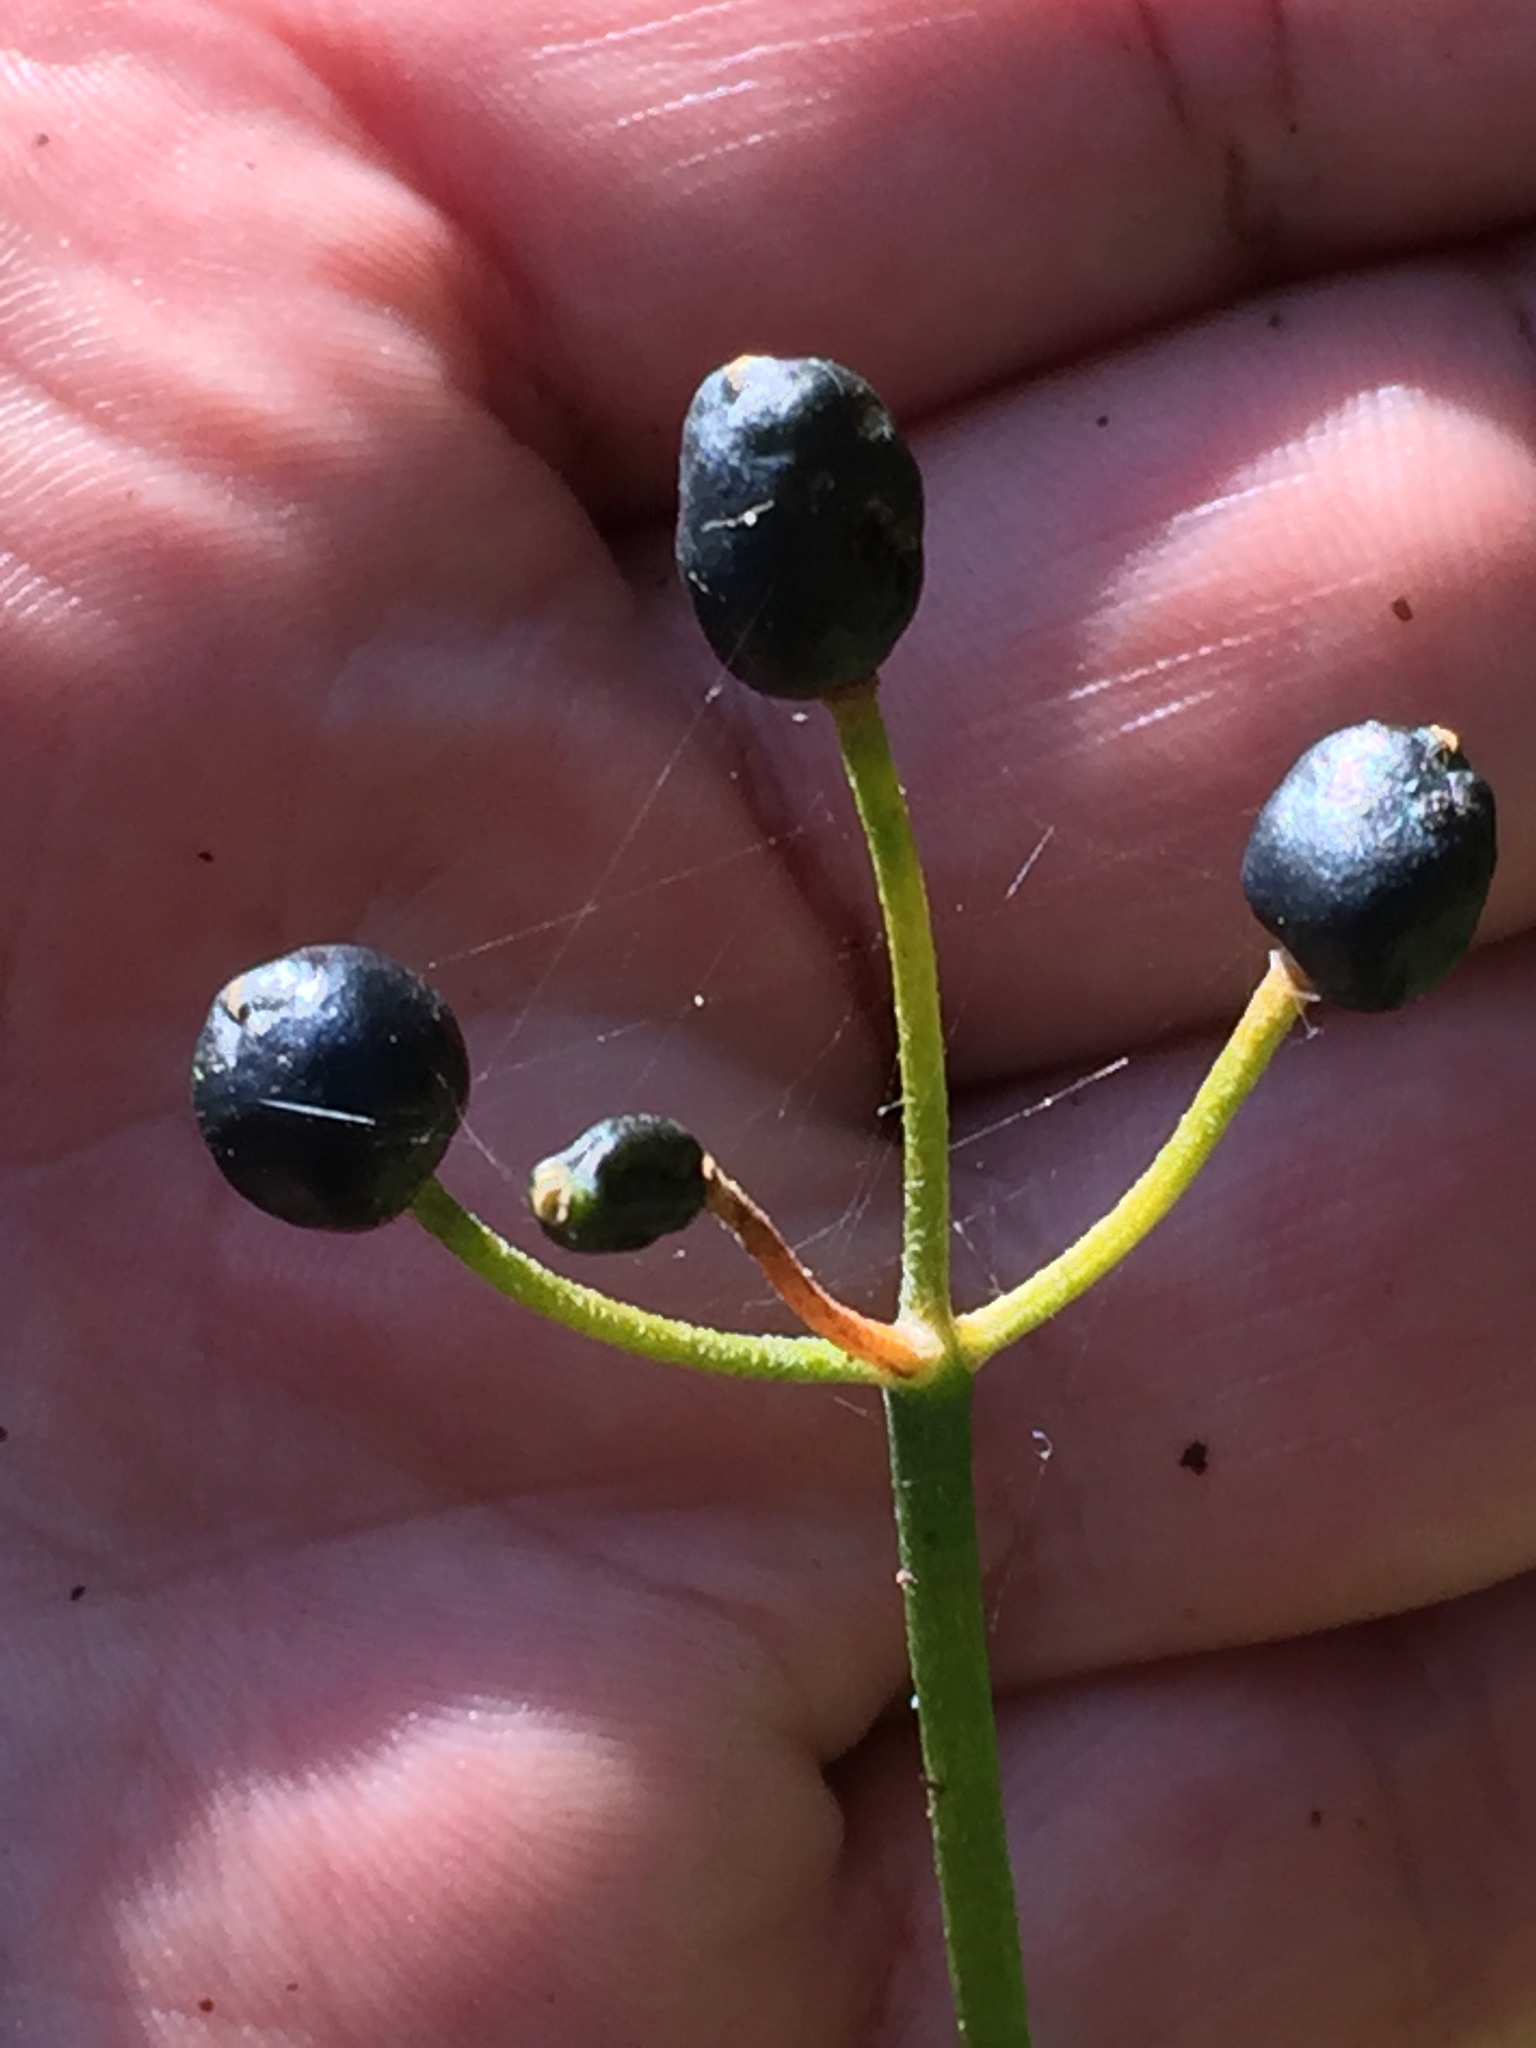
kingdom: Plantae
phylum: Tracheophyta
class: Liliopsida
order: Liliales
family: Liliaceae
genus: Clintonia
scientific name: Clintonia borealis
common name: Yellow clintonia
